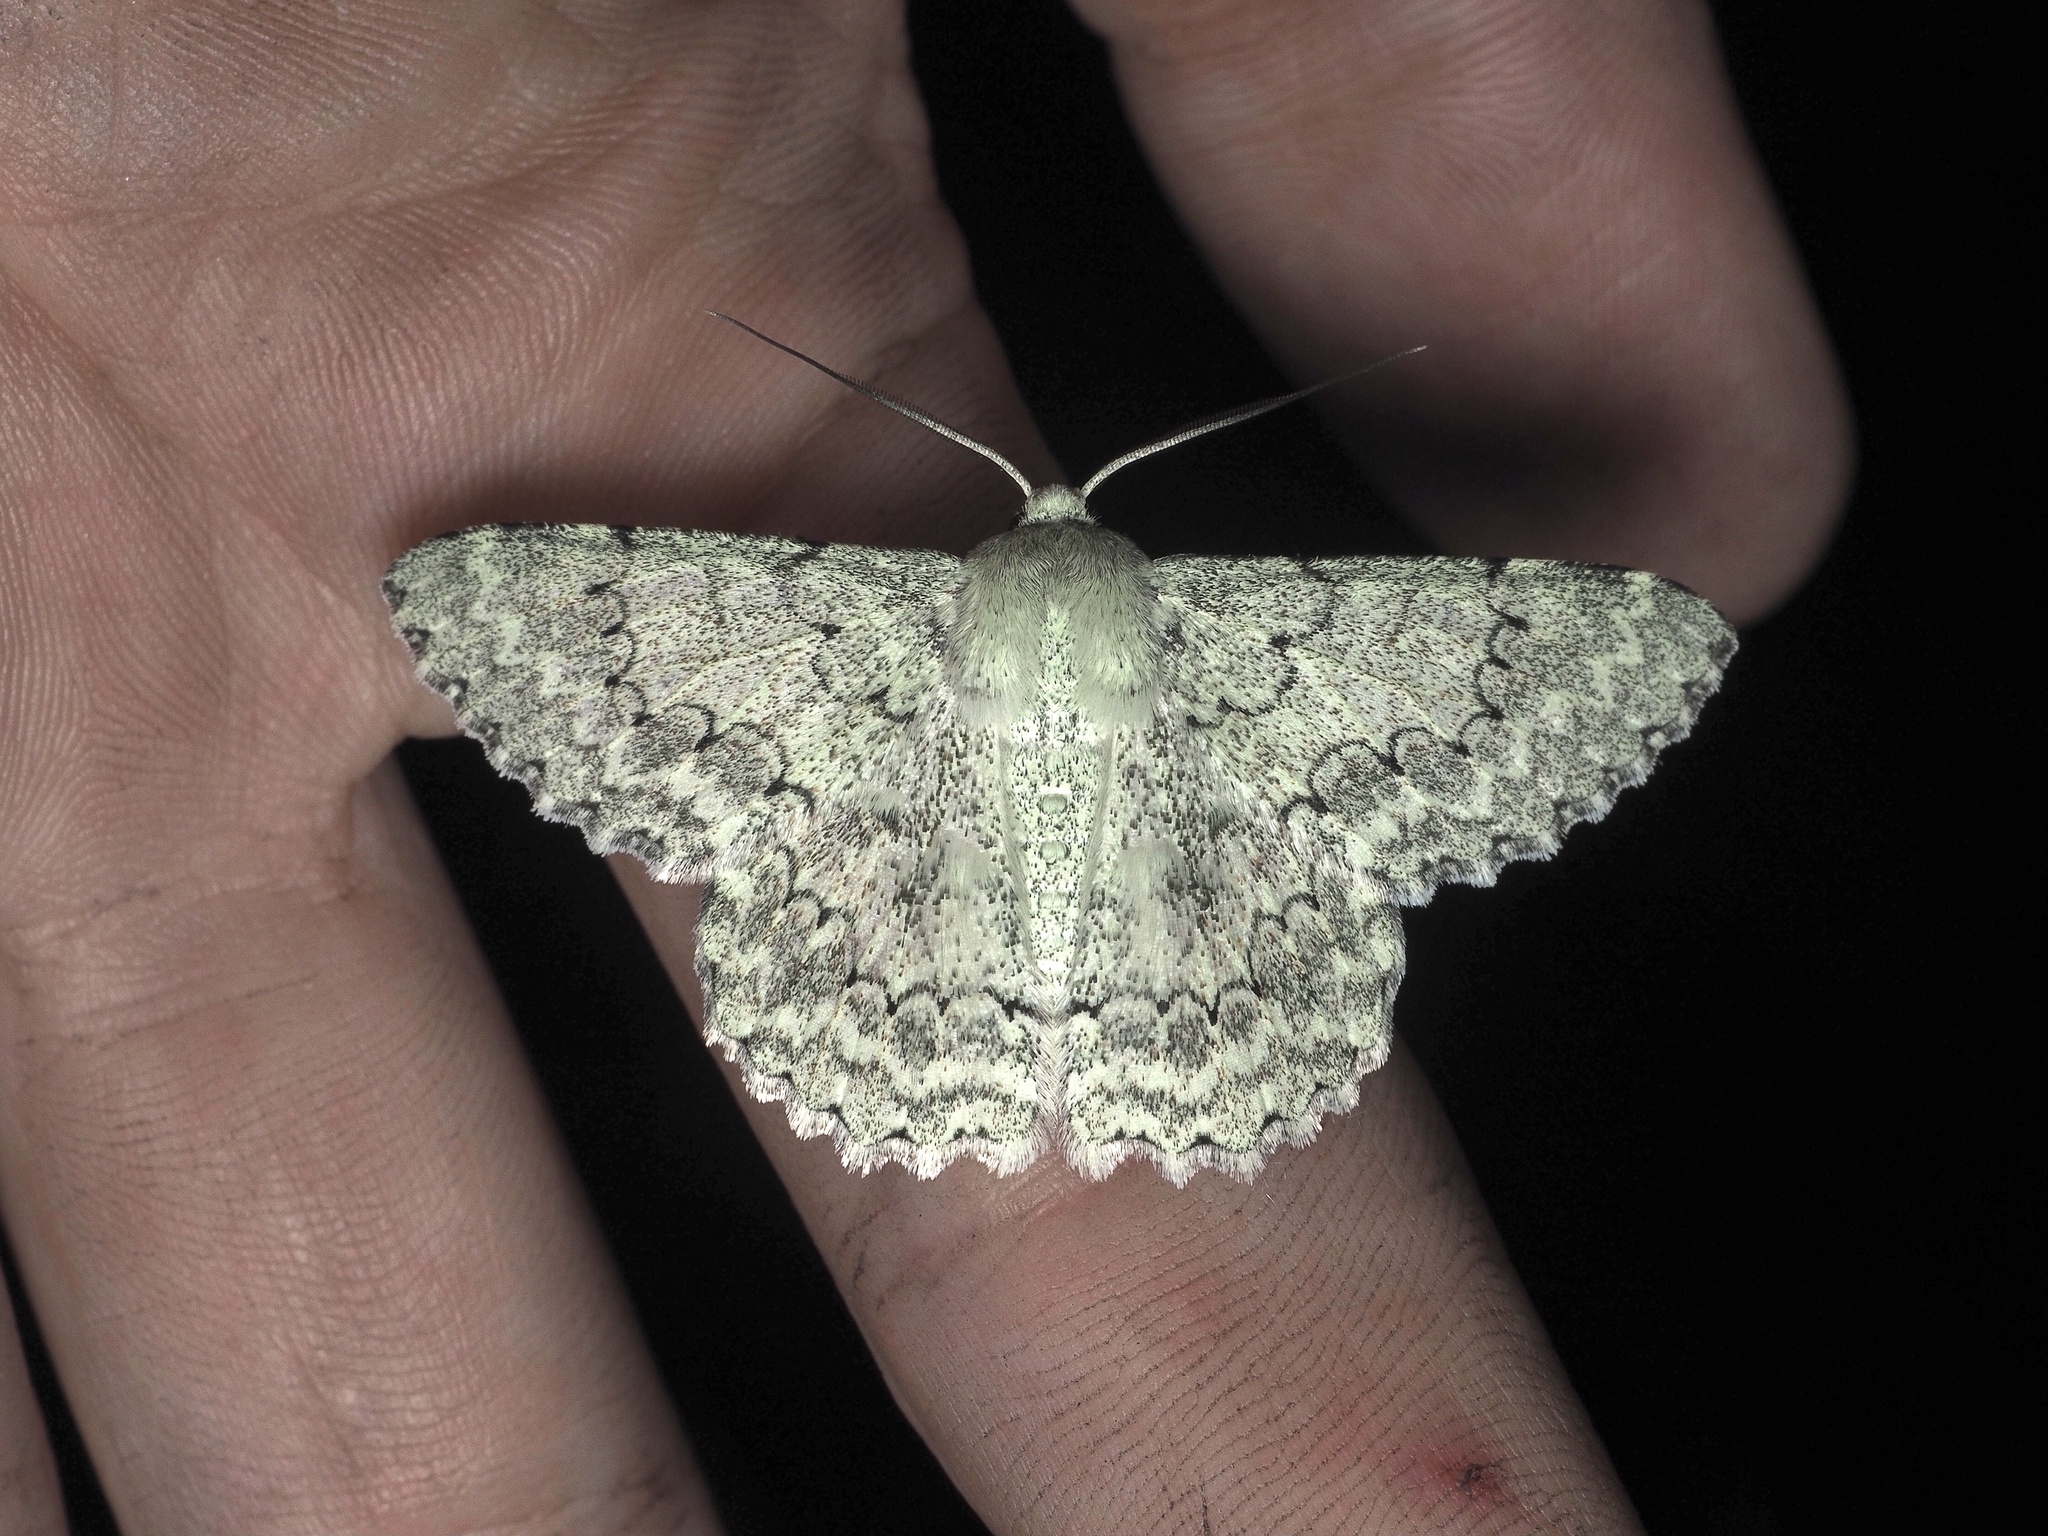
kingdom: Animalia
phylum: Arthropoda
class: Insecta
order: Lepidoptera
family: Geometridae
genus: Pingasa
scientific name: Pingasa abyssiniaria
